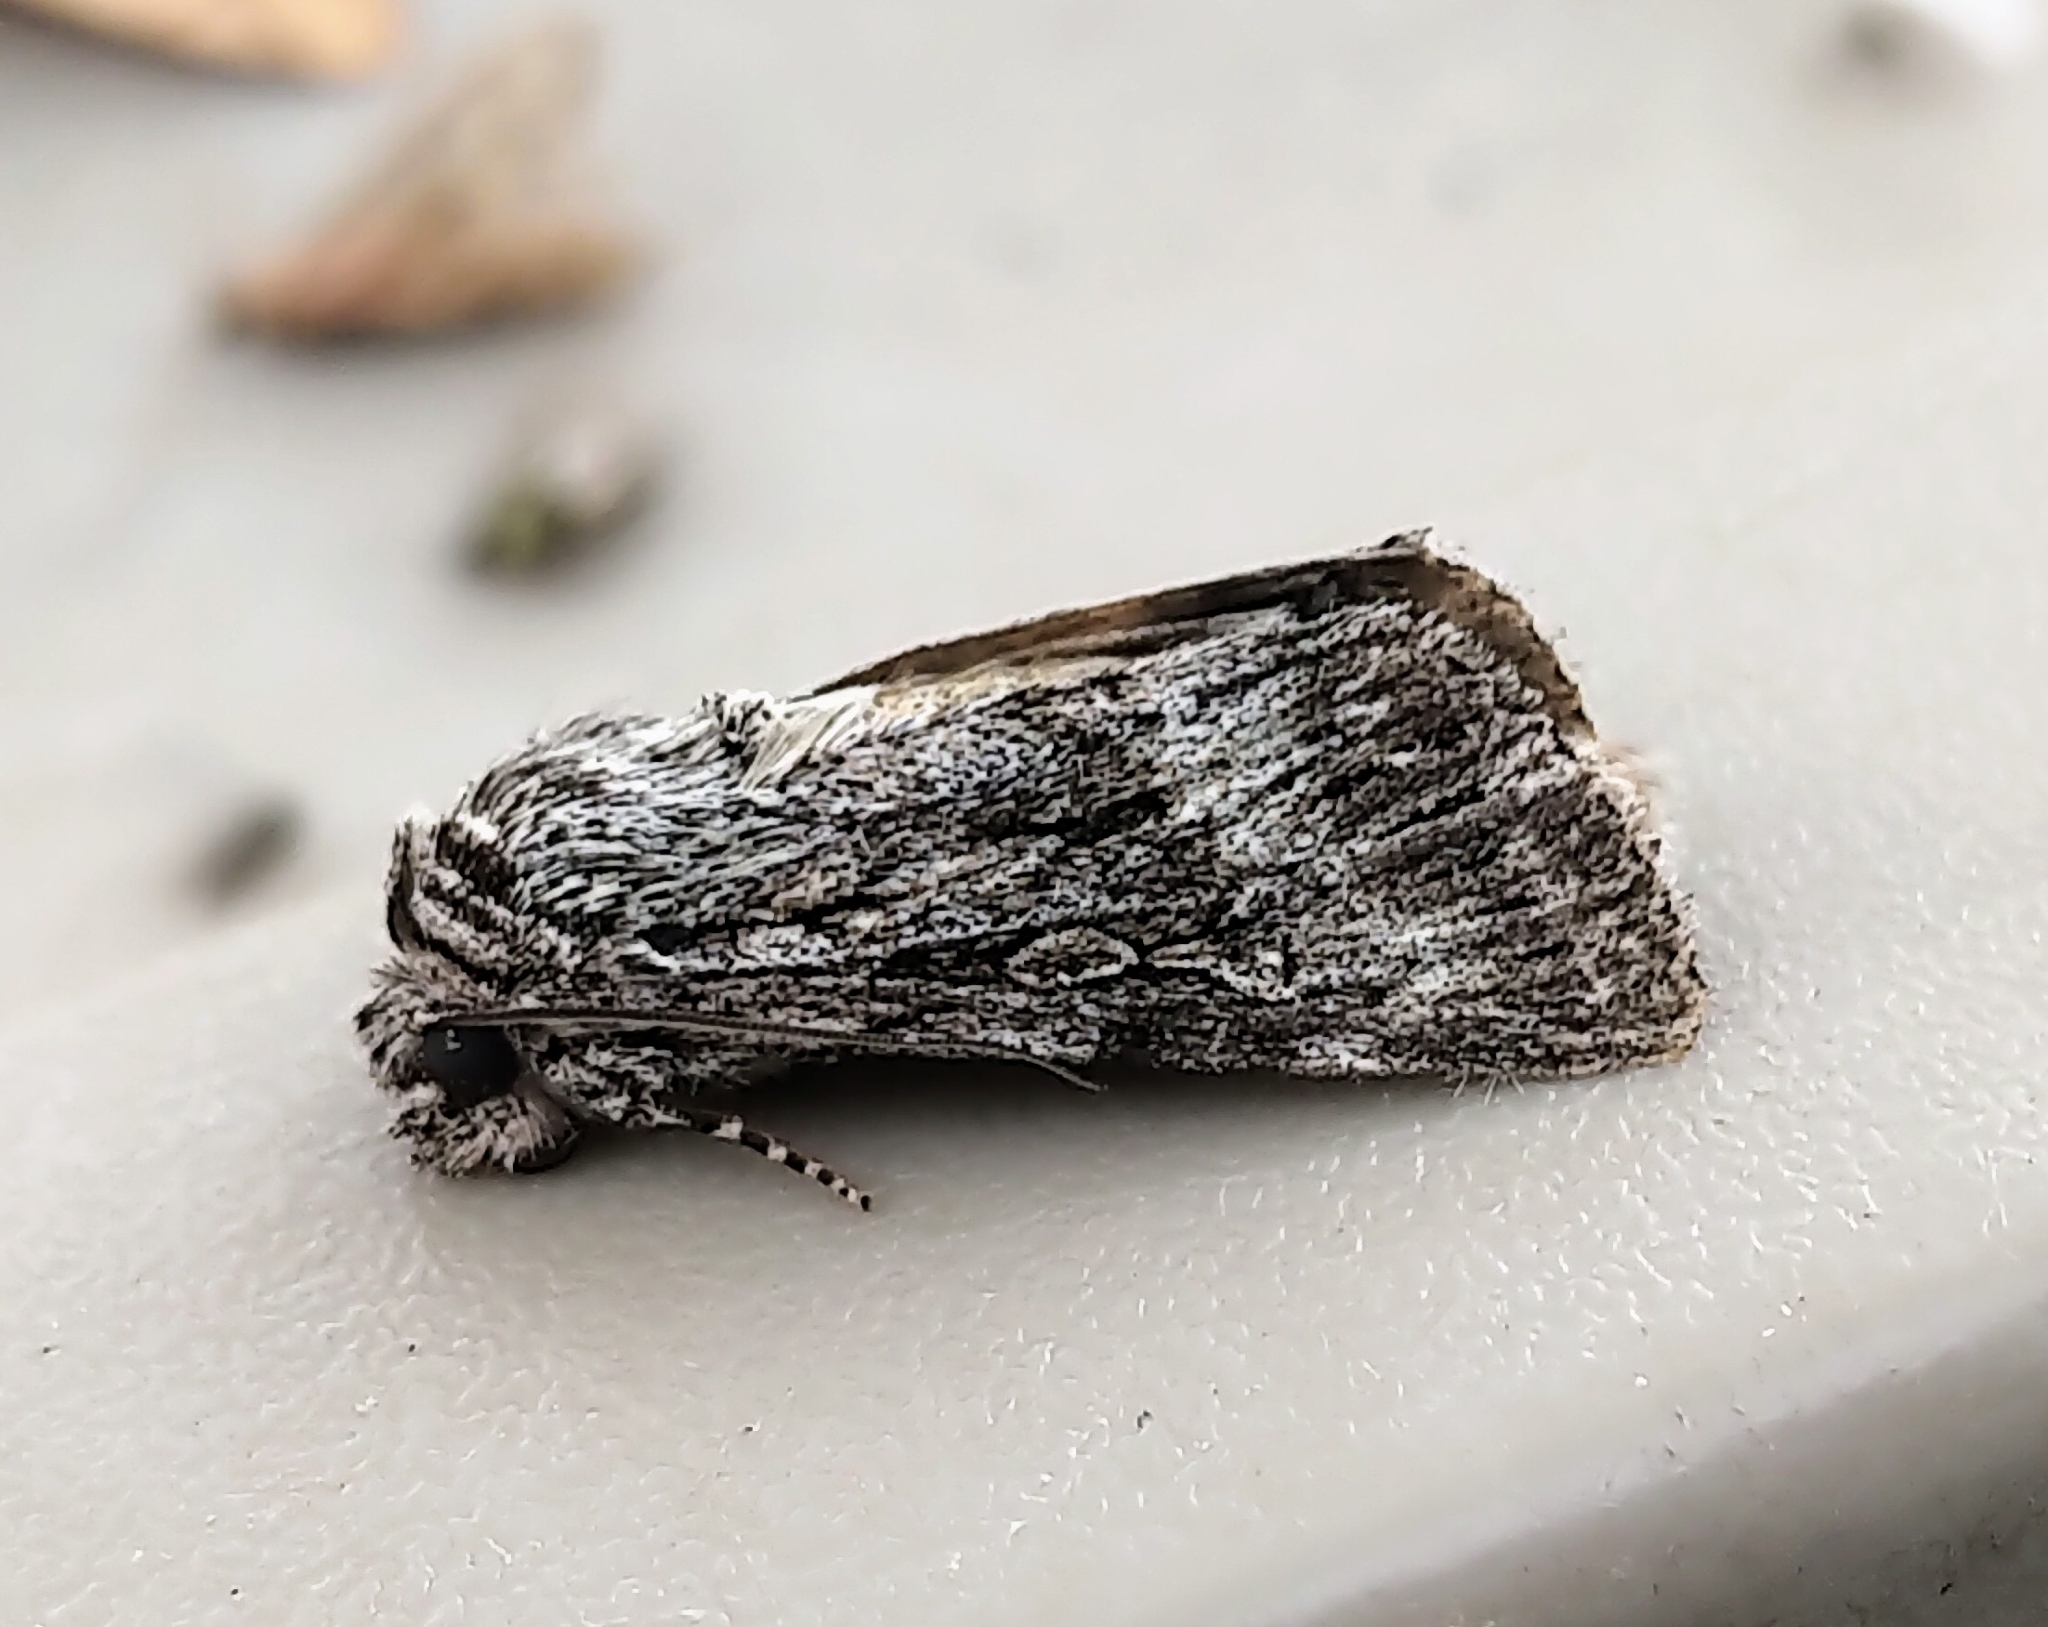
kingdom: Animalia
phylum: Arthropoda
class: Insecta
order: Lepidoptera
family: Noctuidae
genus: Sympistis
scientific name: Sympistis poliochroa
